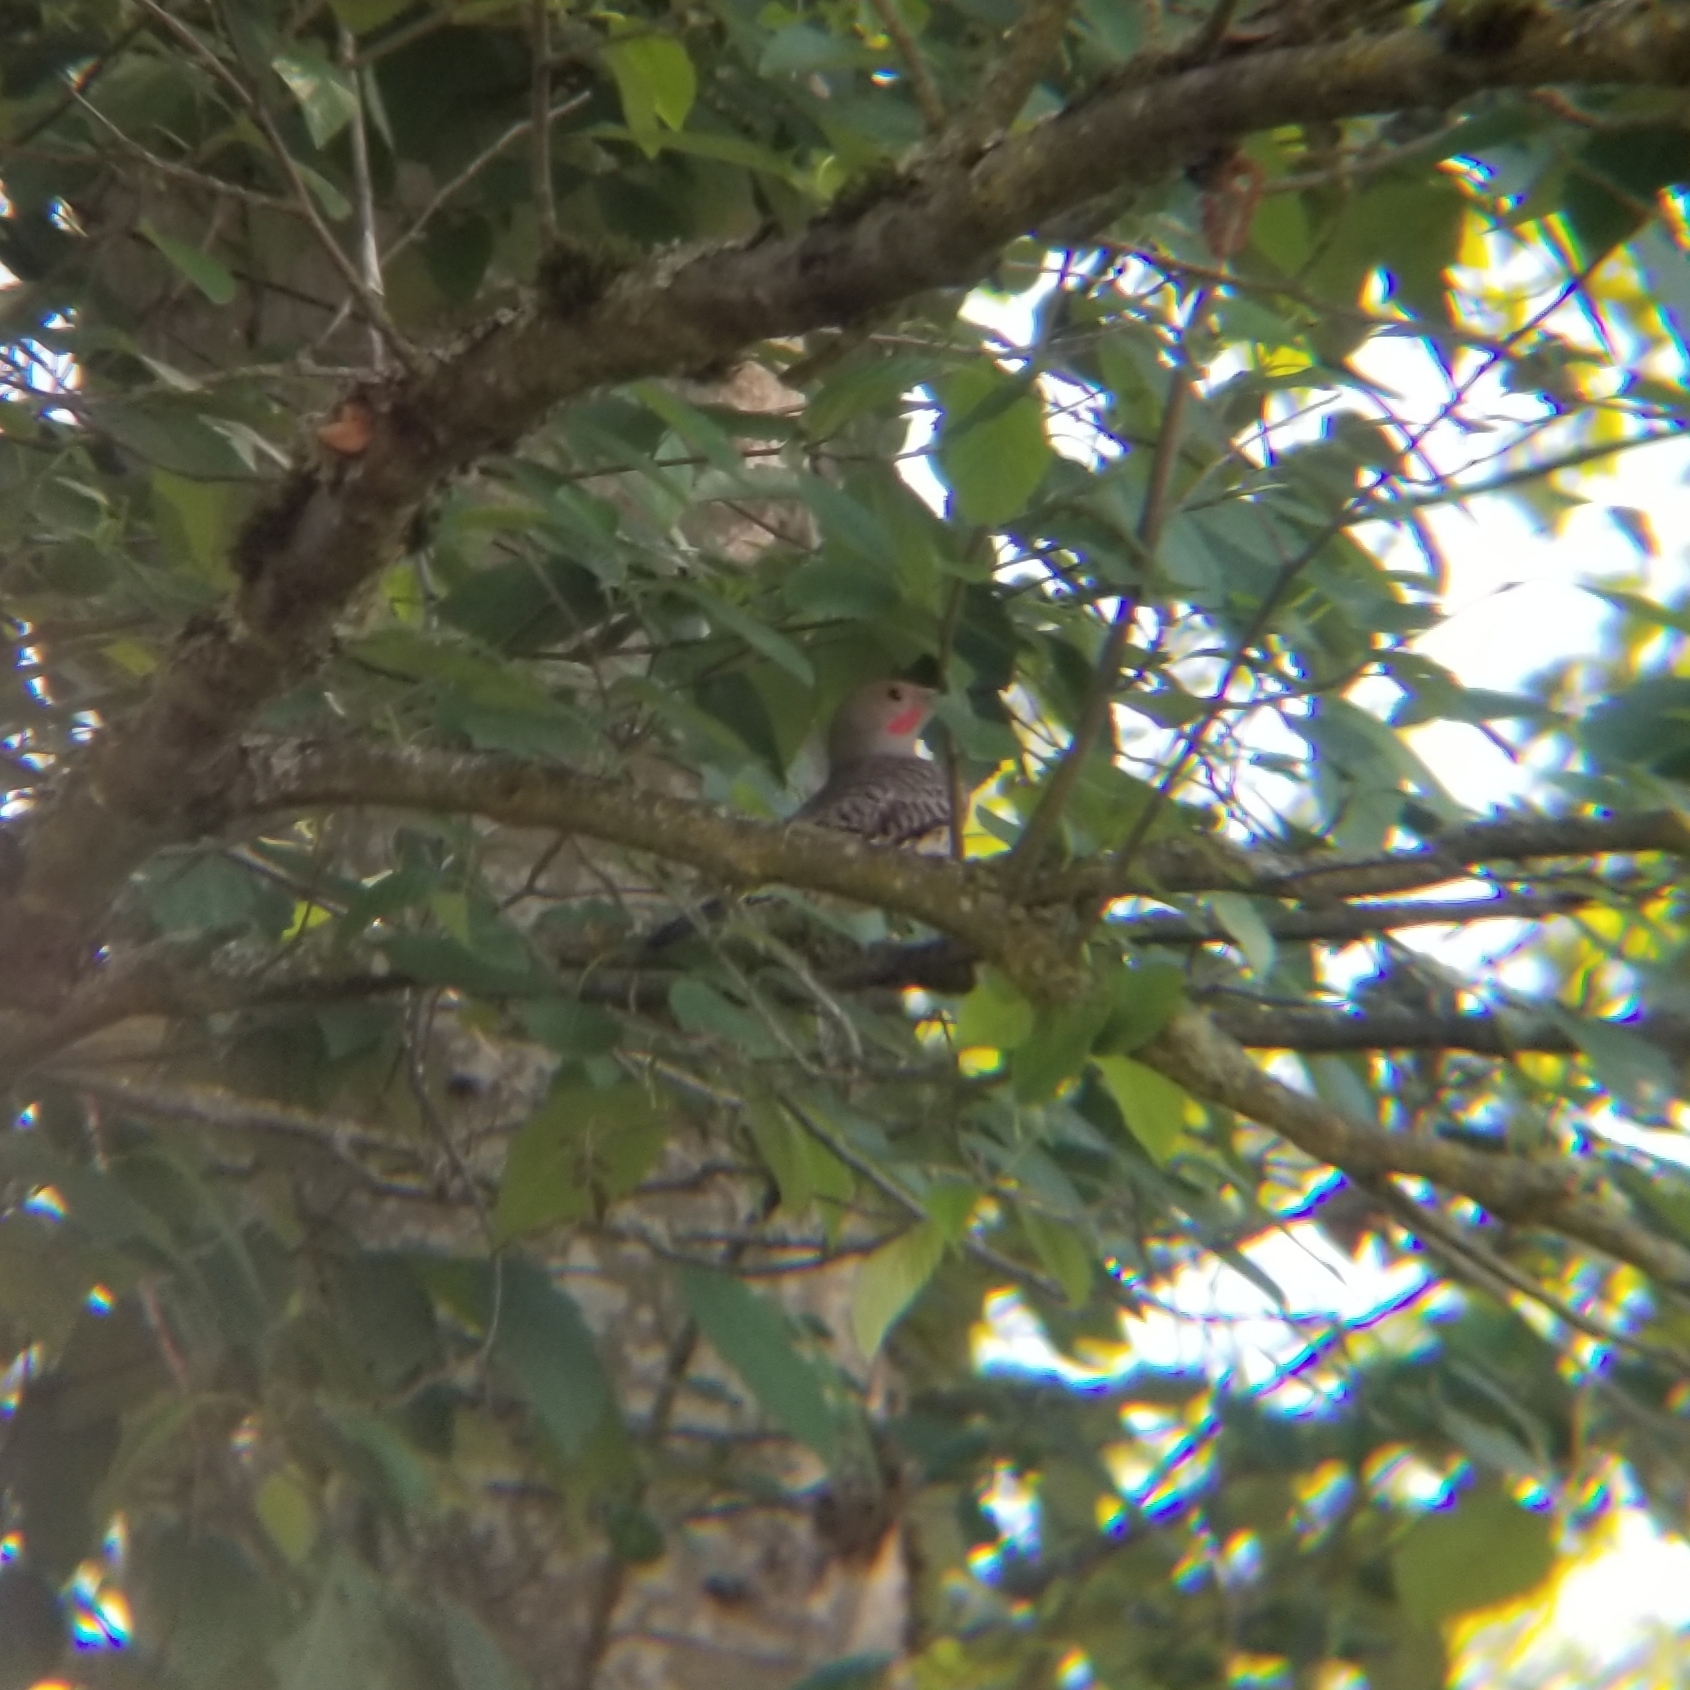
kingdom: Animalia
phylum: Chordata
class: Aves
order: Piciformes
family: Picidae
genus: Colaptes
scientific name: Colaptes auratus
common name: Northern flicker
